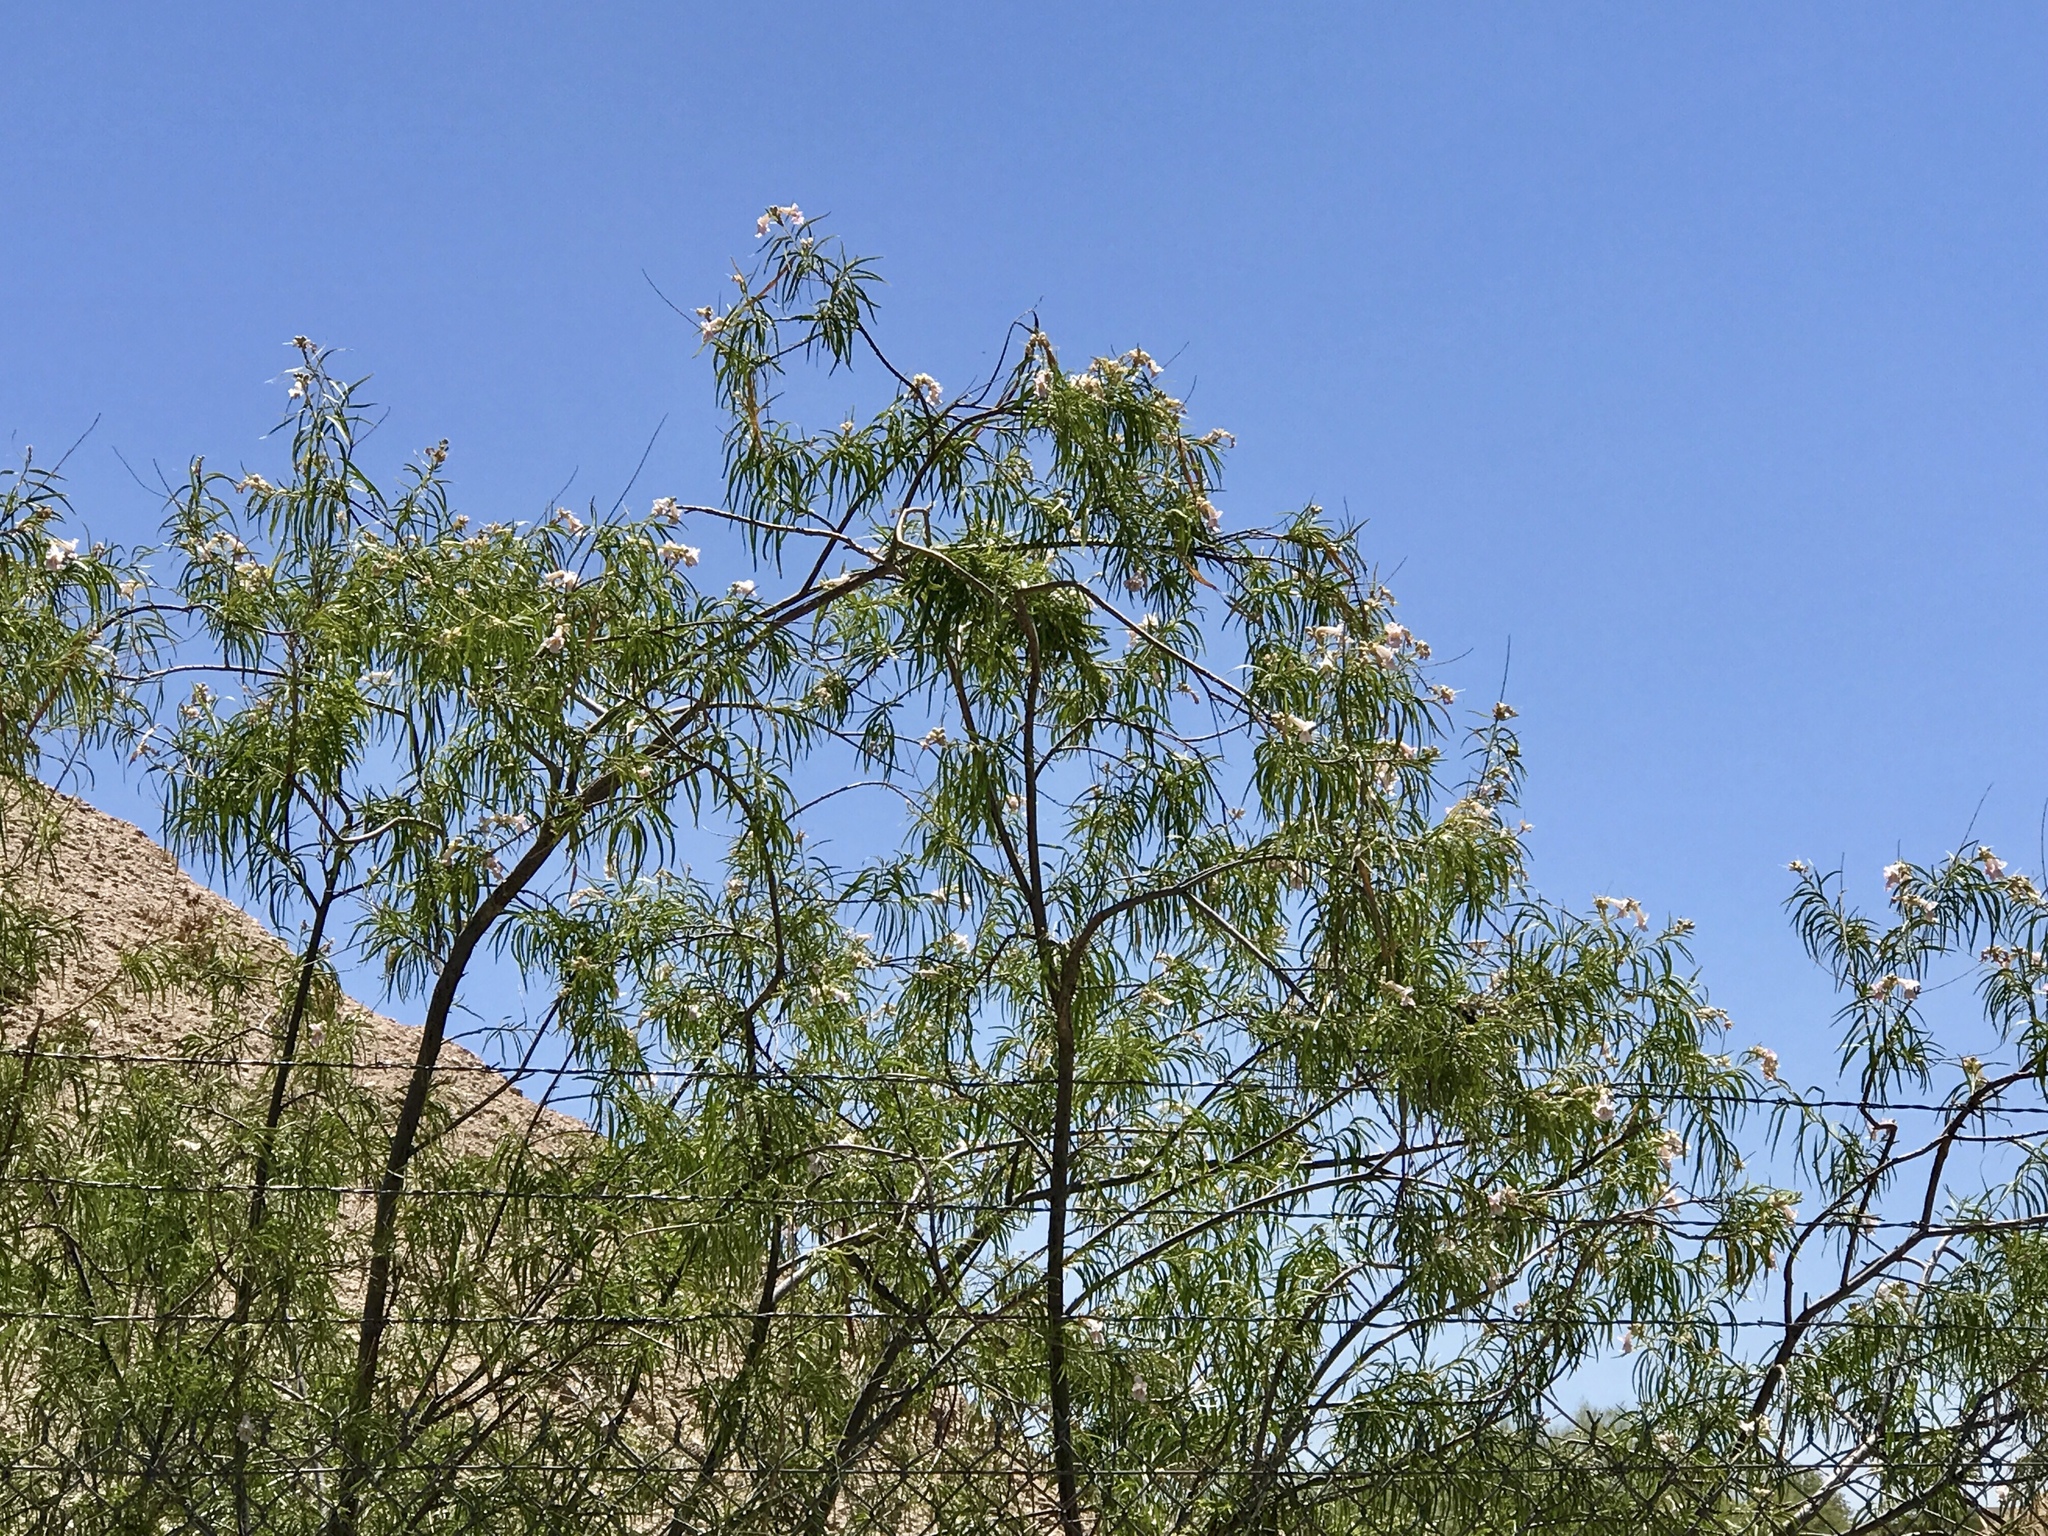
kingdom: Plantae
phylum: Tracheophyta
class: Magnoliopsida
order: Lamiales
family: Bignoniaceae
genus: Chilopsis
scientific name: Chilopsis linearis
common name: Desert-willow
